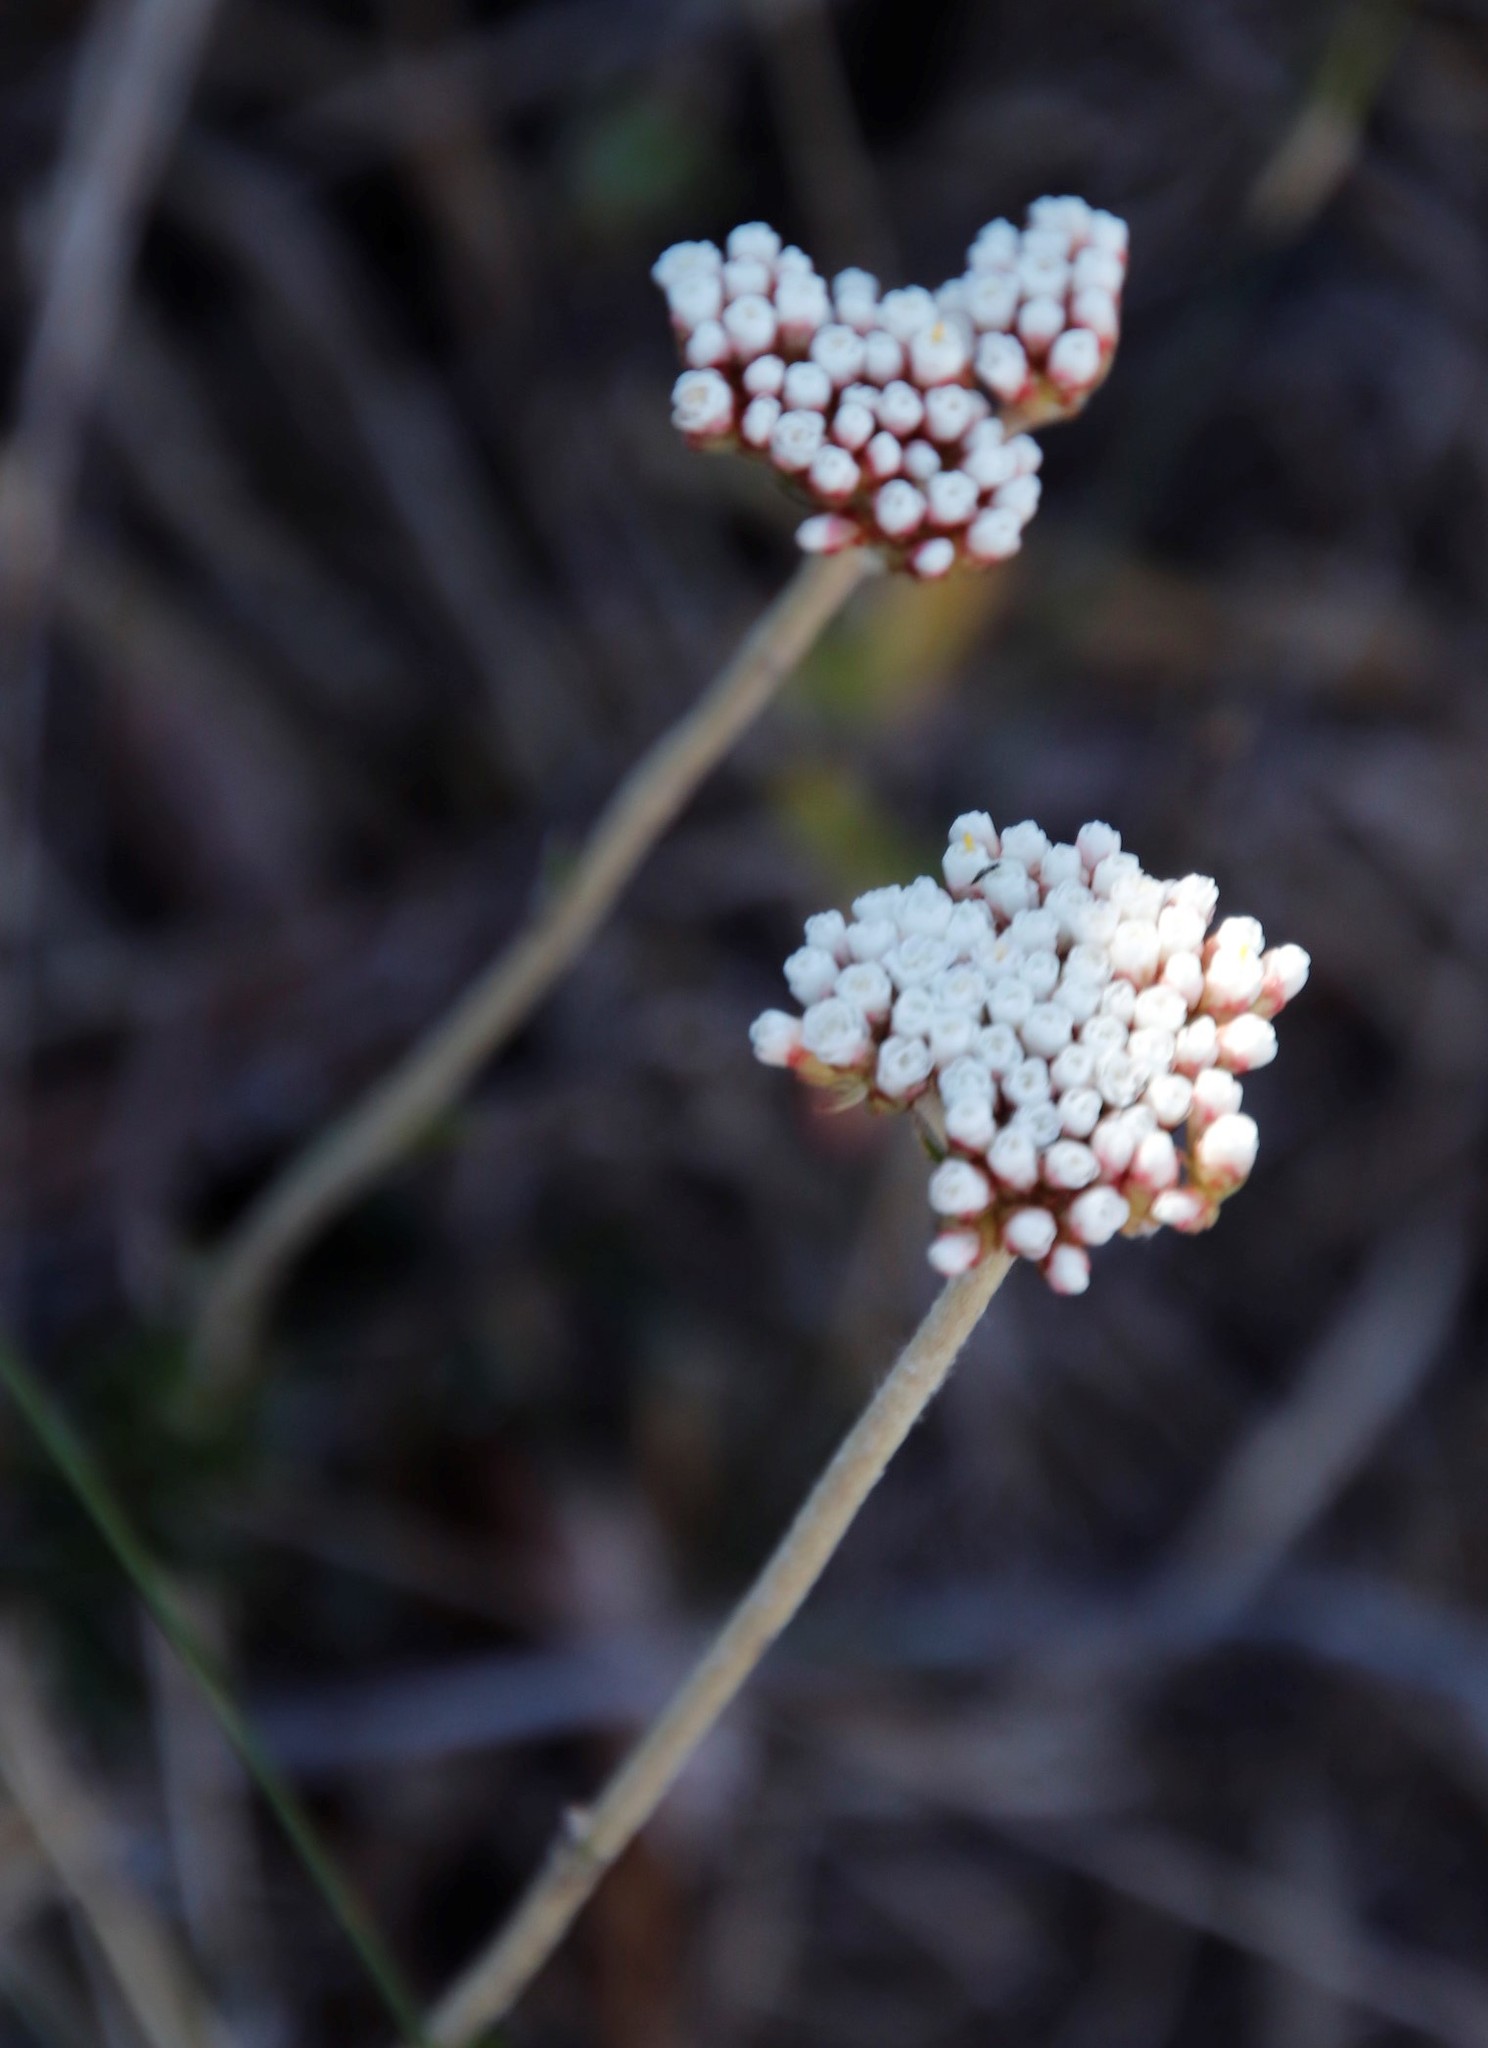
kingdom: Plantae
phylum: Tracheophyta
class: Magnoliopsida
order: Asterales
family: Asteraceae
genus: Anaxeton
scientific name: Anaxeton arborescens
